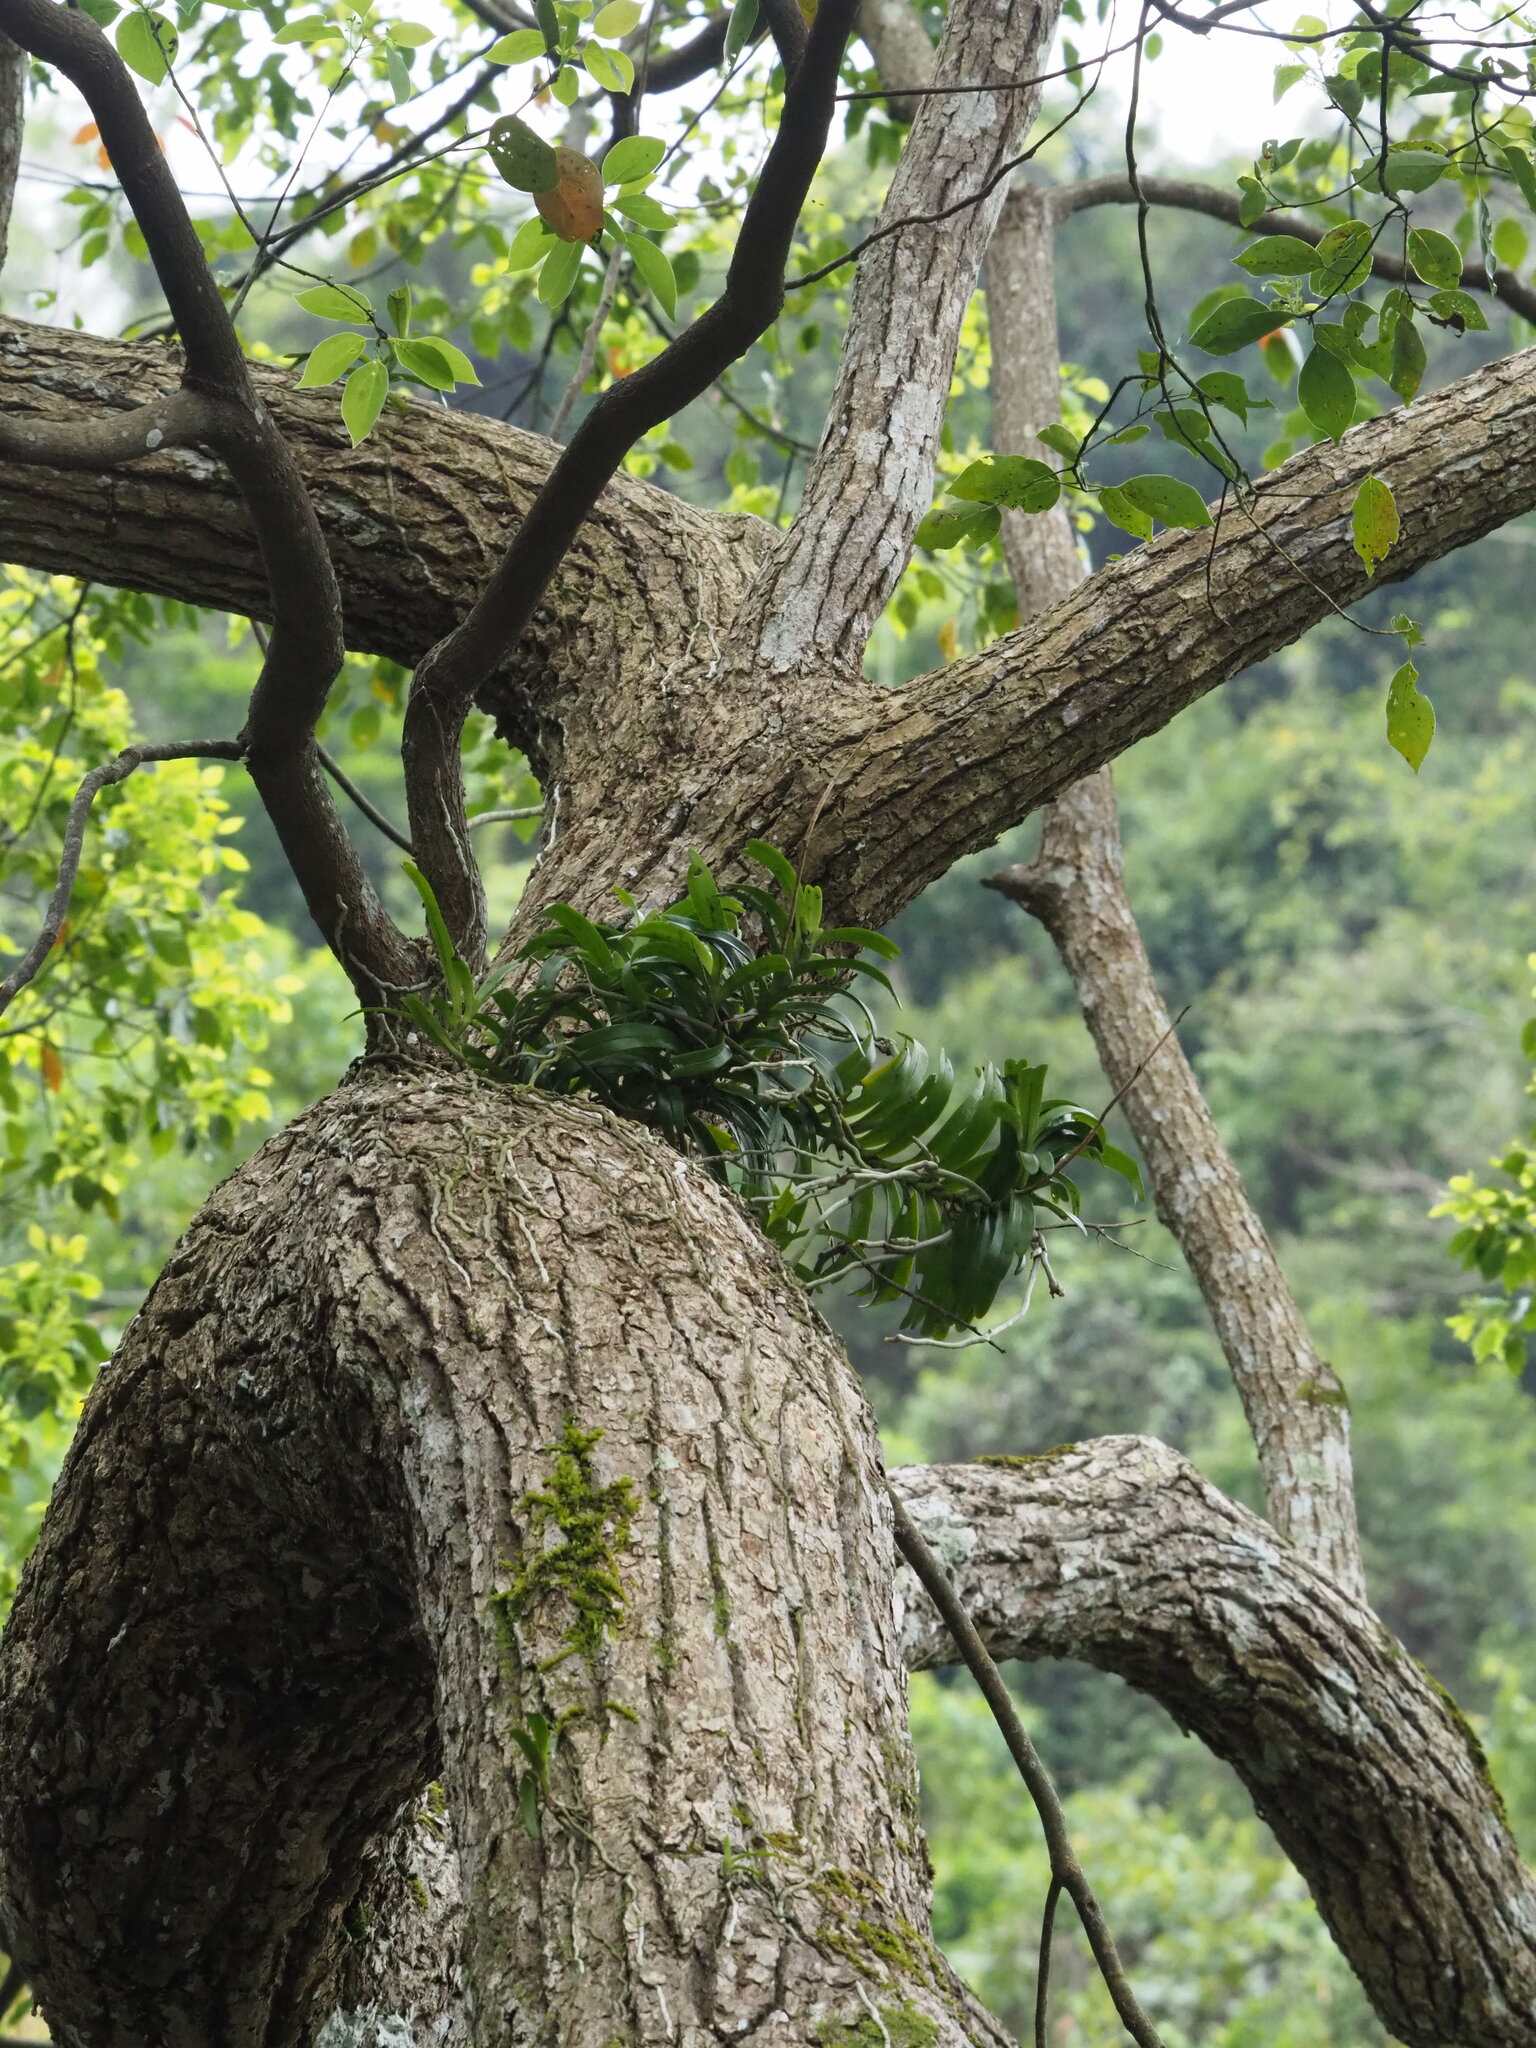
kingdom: Plantae
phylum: Tracheophyta
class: Liliopsida
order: Asparagales
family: Orchidaceae
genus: Cleisostoma
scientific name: Cleisostoma paniculatum
